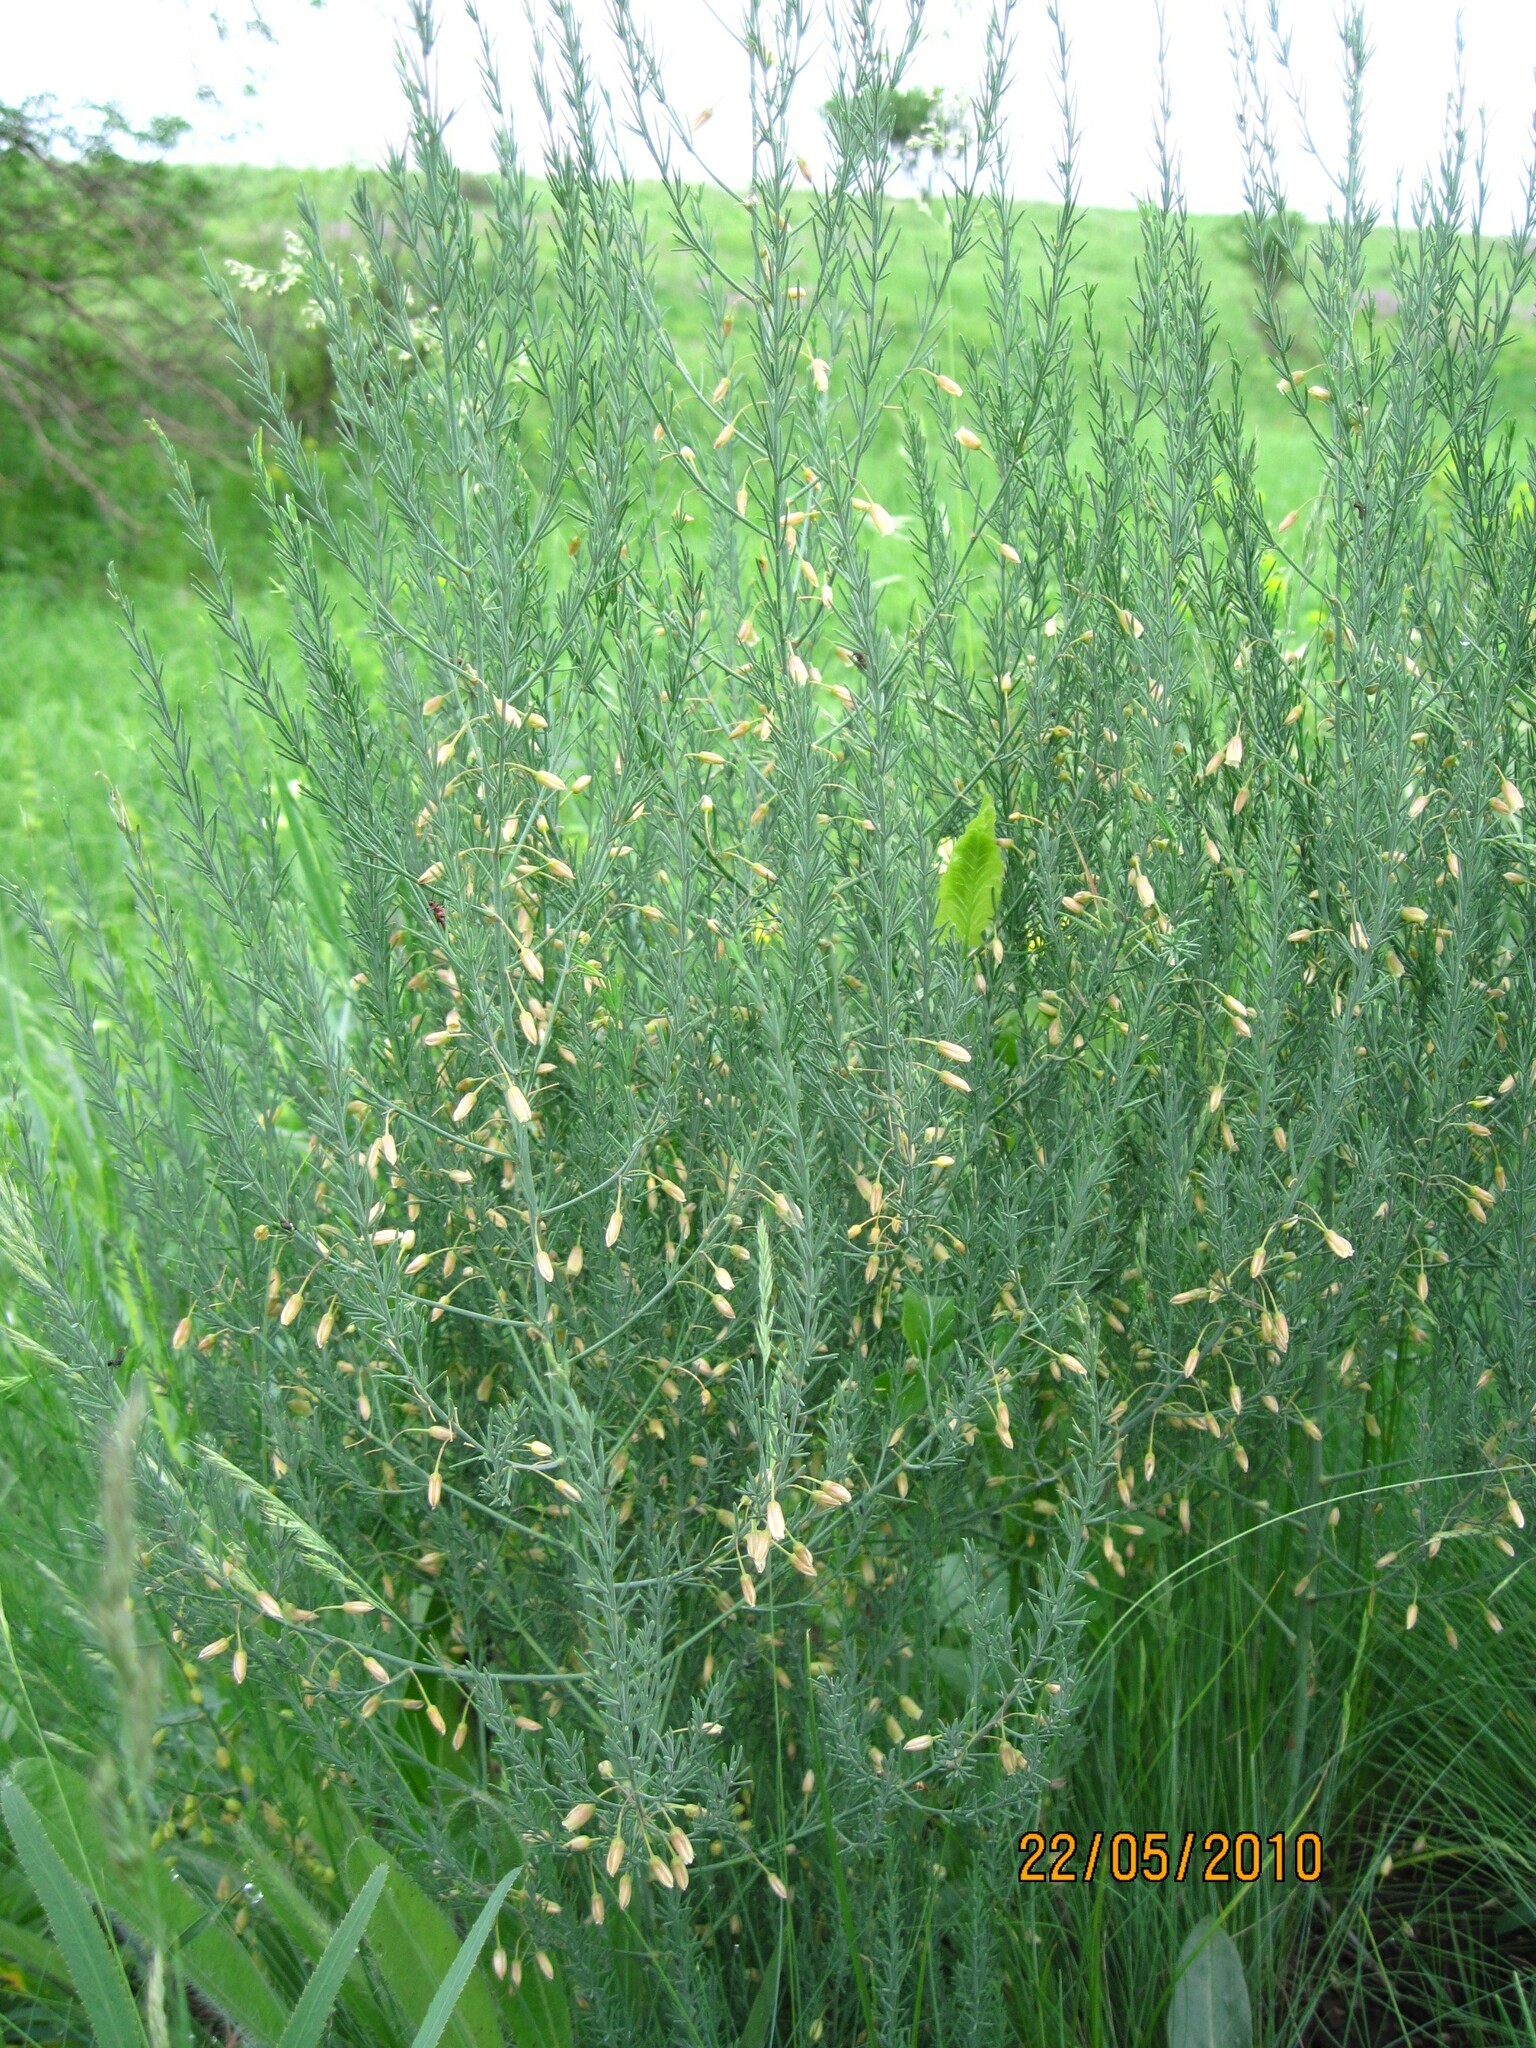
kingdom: Plantae
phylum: Tracheophyta
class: Liliopsida
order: Asparagales
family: Asparagaceae
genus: Asparagus
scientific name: Asparagus officinalis
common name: Garden asparagus
